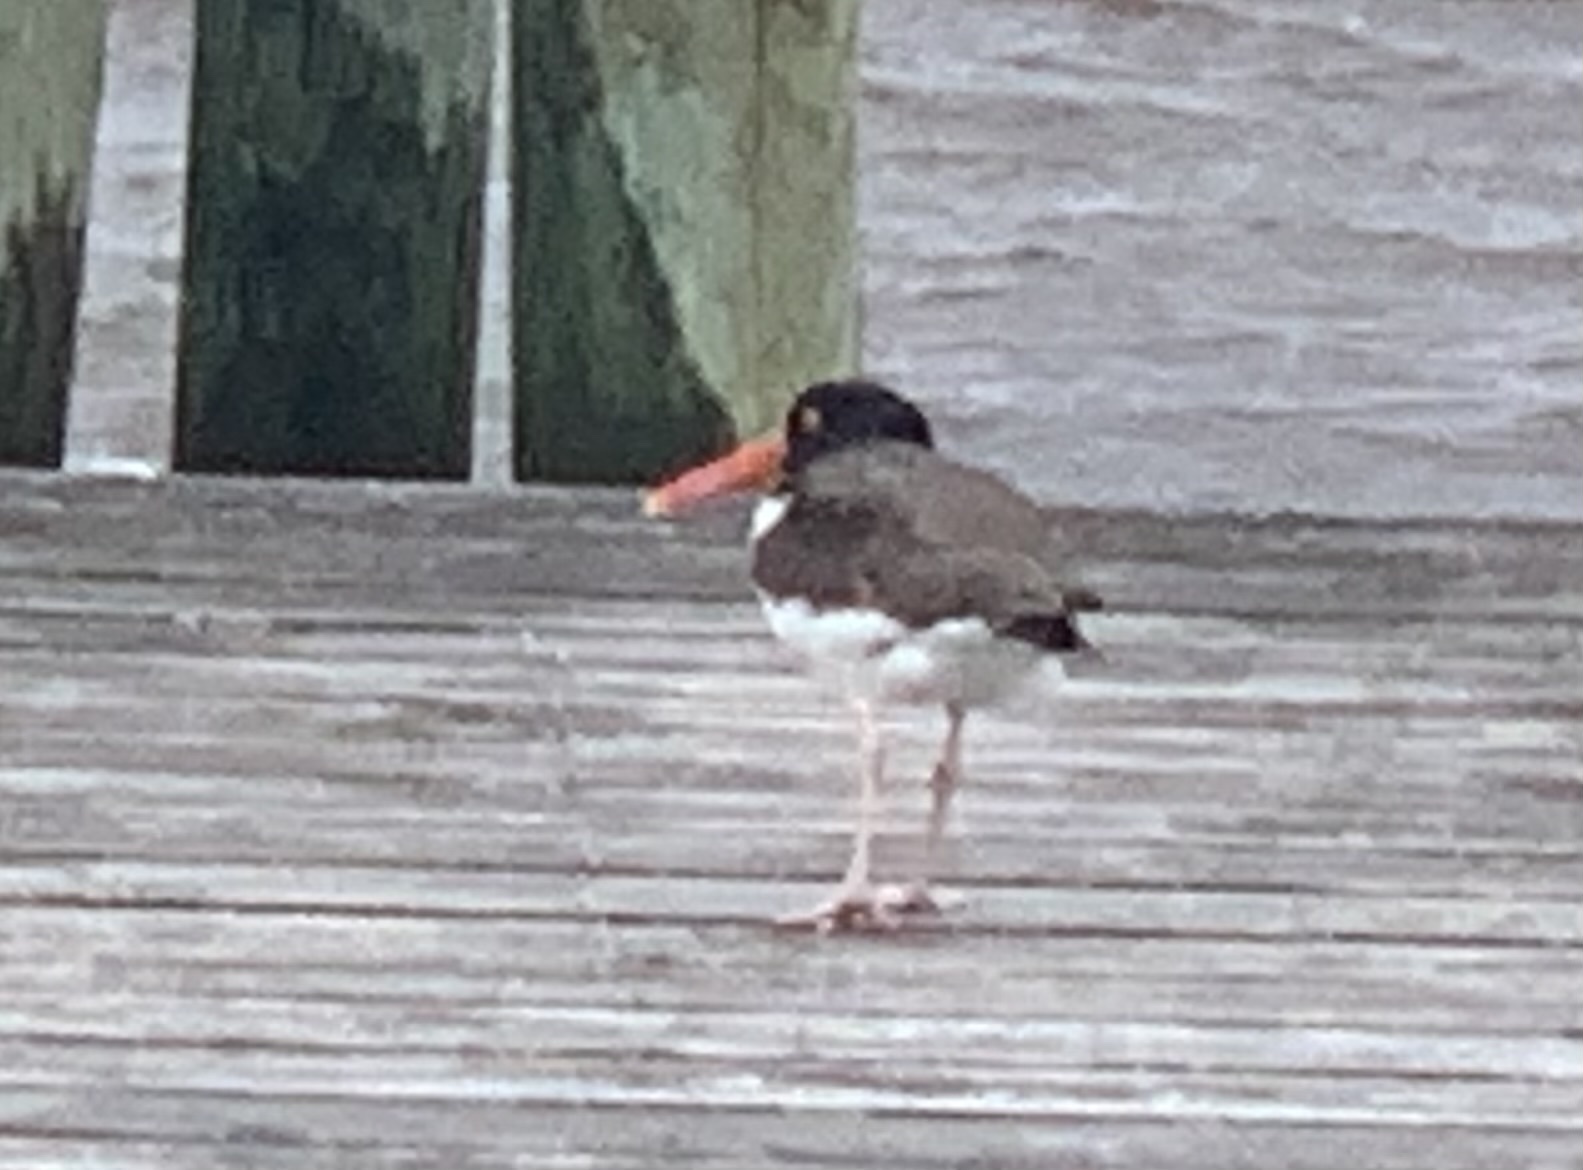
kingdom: Animalia
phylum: Chordata
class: Aves
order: Charadriiformes
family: Haematopodidae
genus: Haematopus
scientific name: Haematopus palliatus
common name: American oystercatcher
